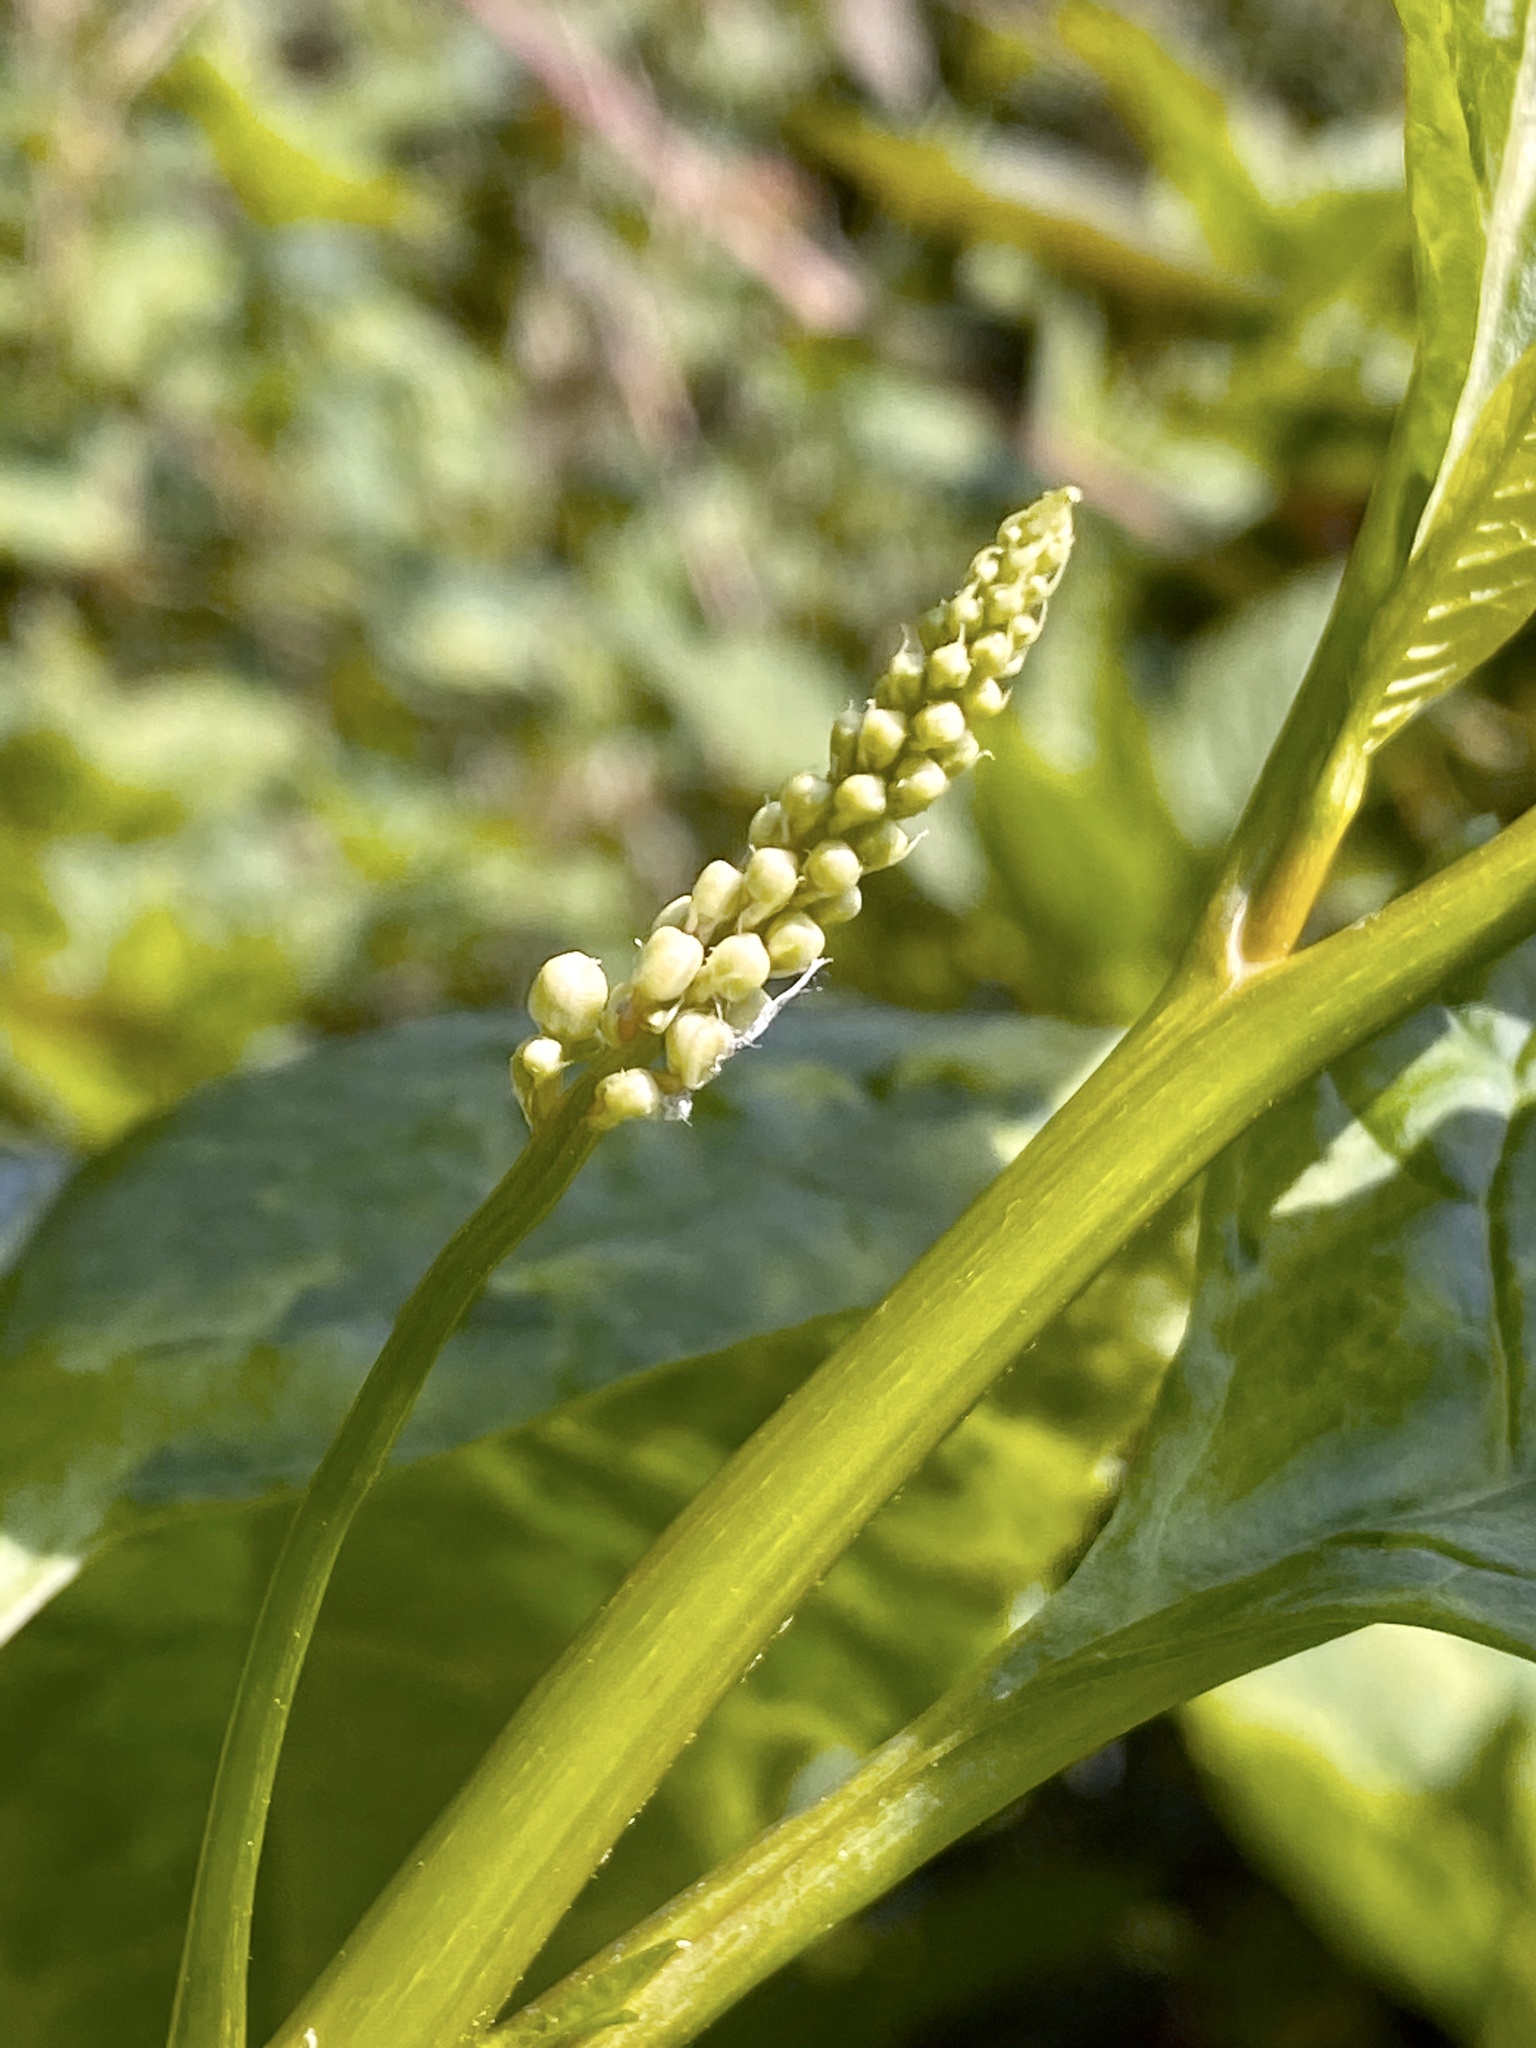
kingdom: Plantae
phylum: Tracheophyta
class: Magnoliopsida
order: Caryophyllales
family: Phytolaccaceae
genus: Phytolacca
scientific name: Phytolacca americana
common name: American pokeweed
